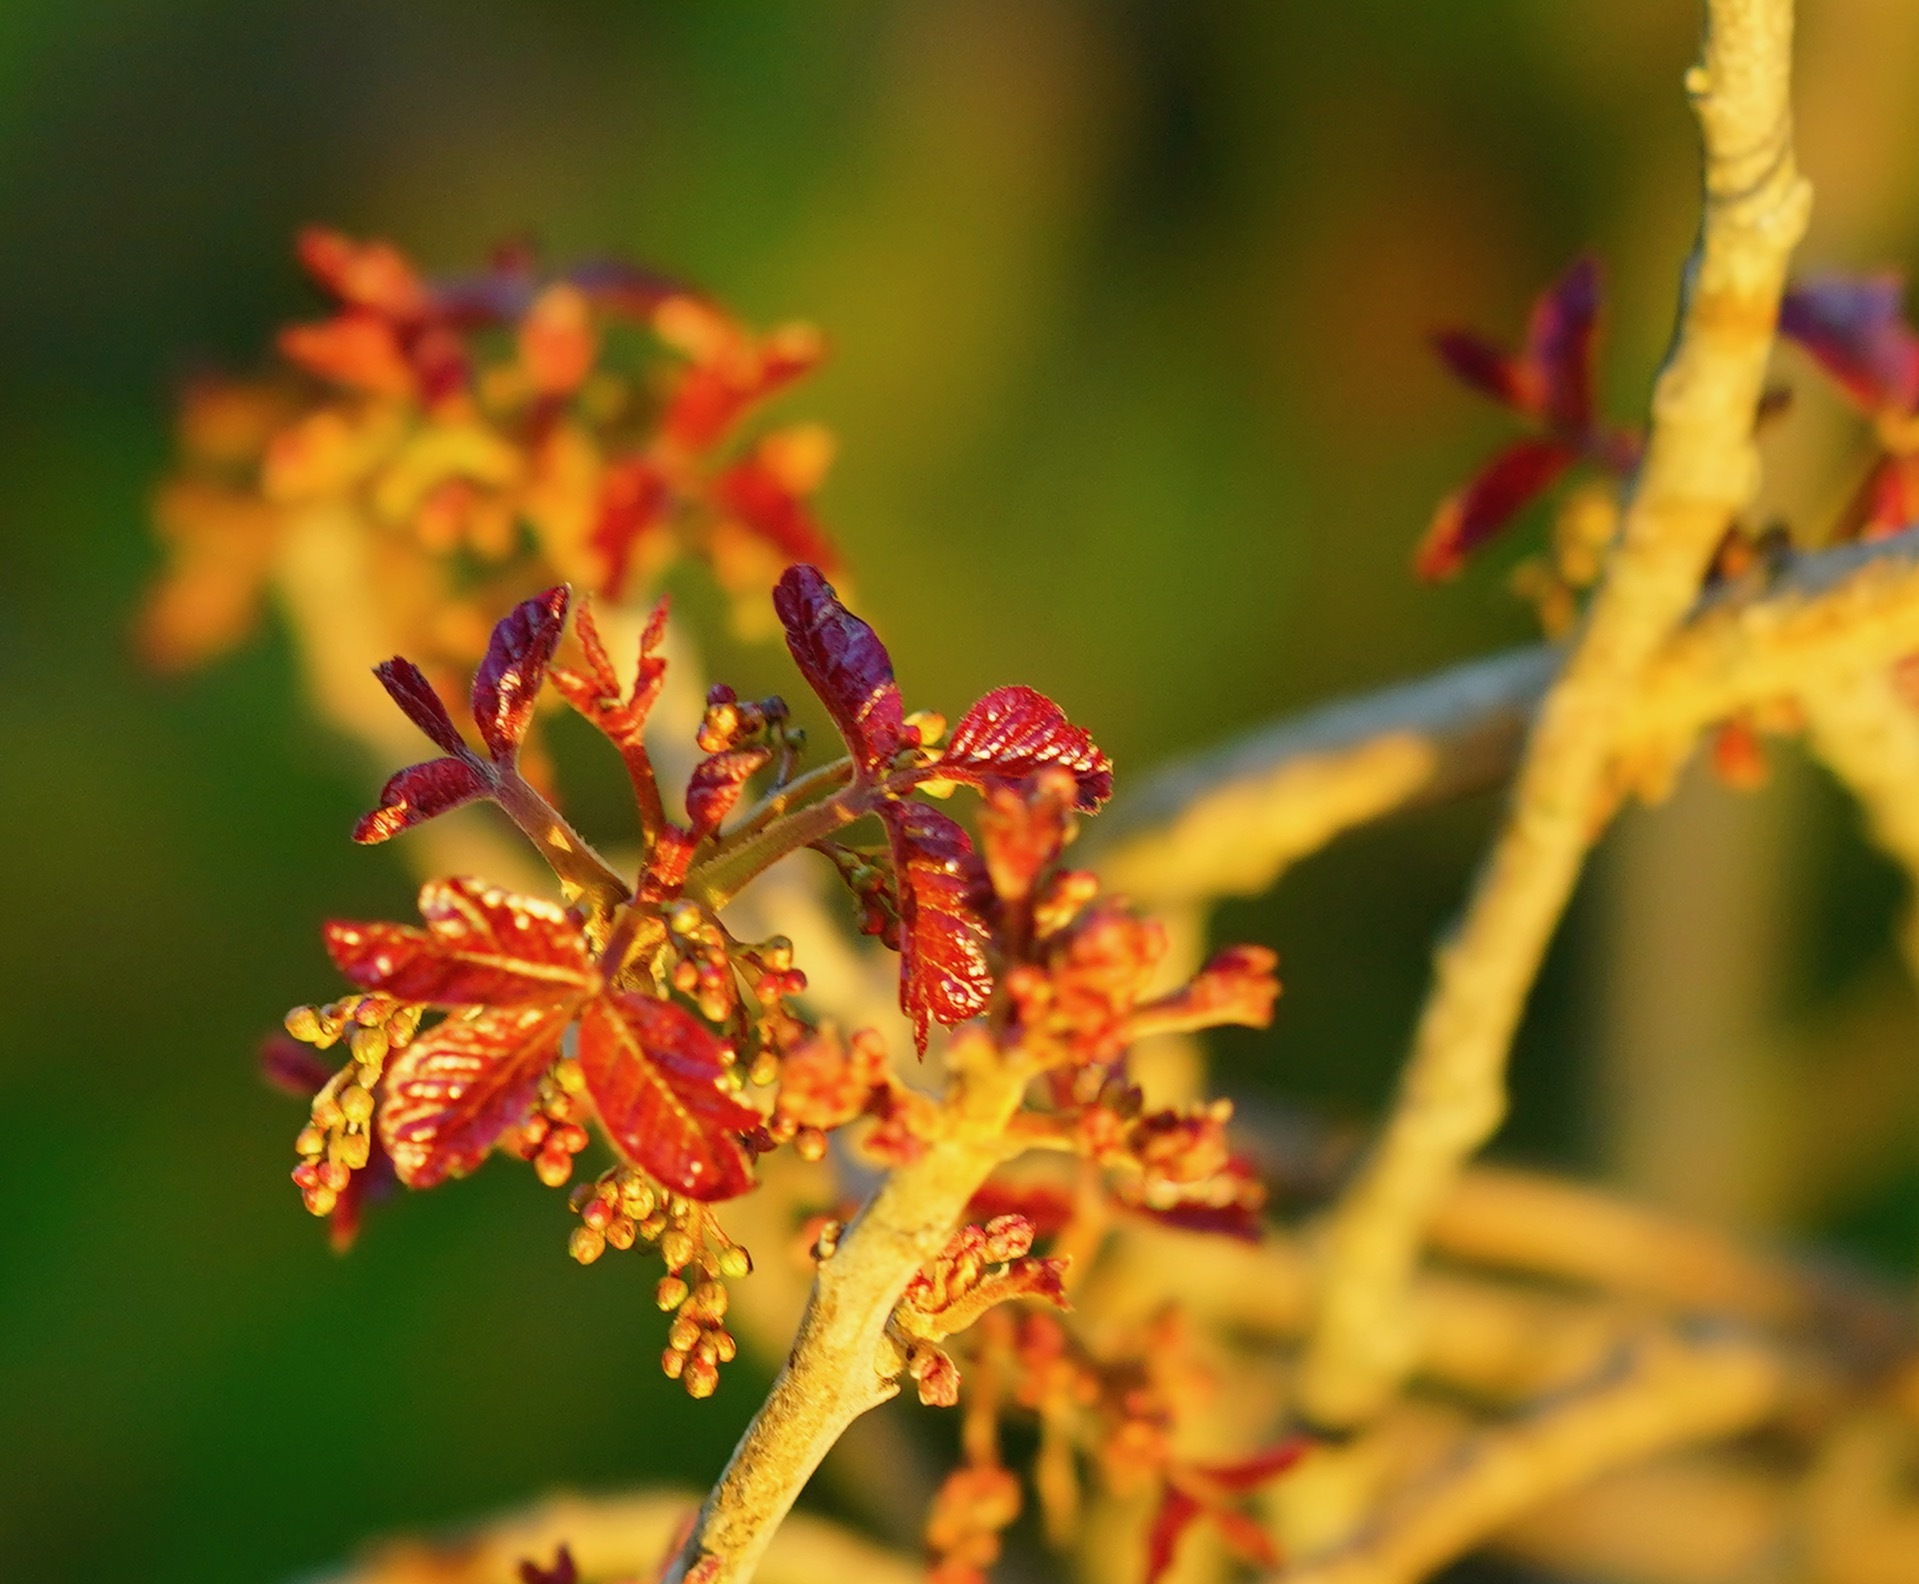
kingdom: Plantae
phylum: Tracheophyta
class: Magnoliopsida
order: Sapindales
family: Anacardiaceae
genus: Toxicodendron
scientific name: Toxicodendron diversilobum
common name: Pacific poison-oak
